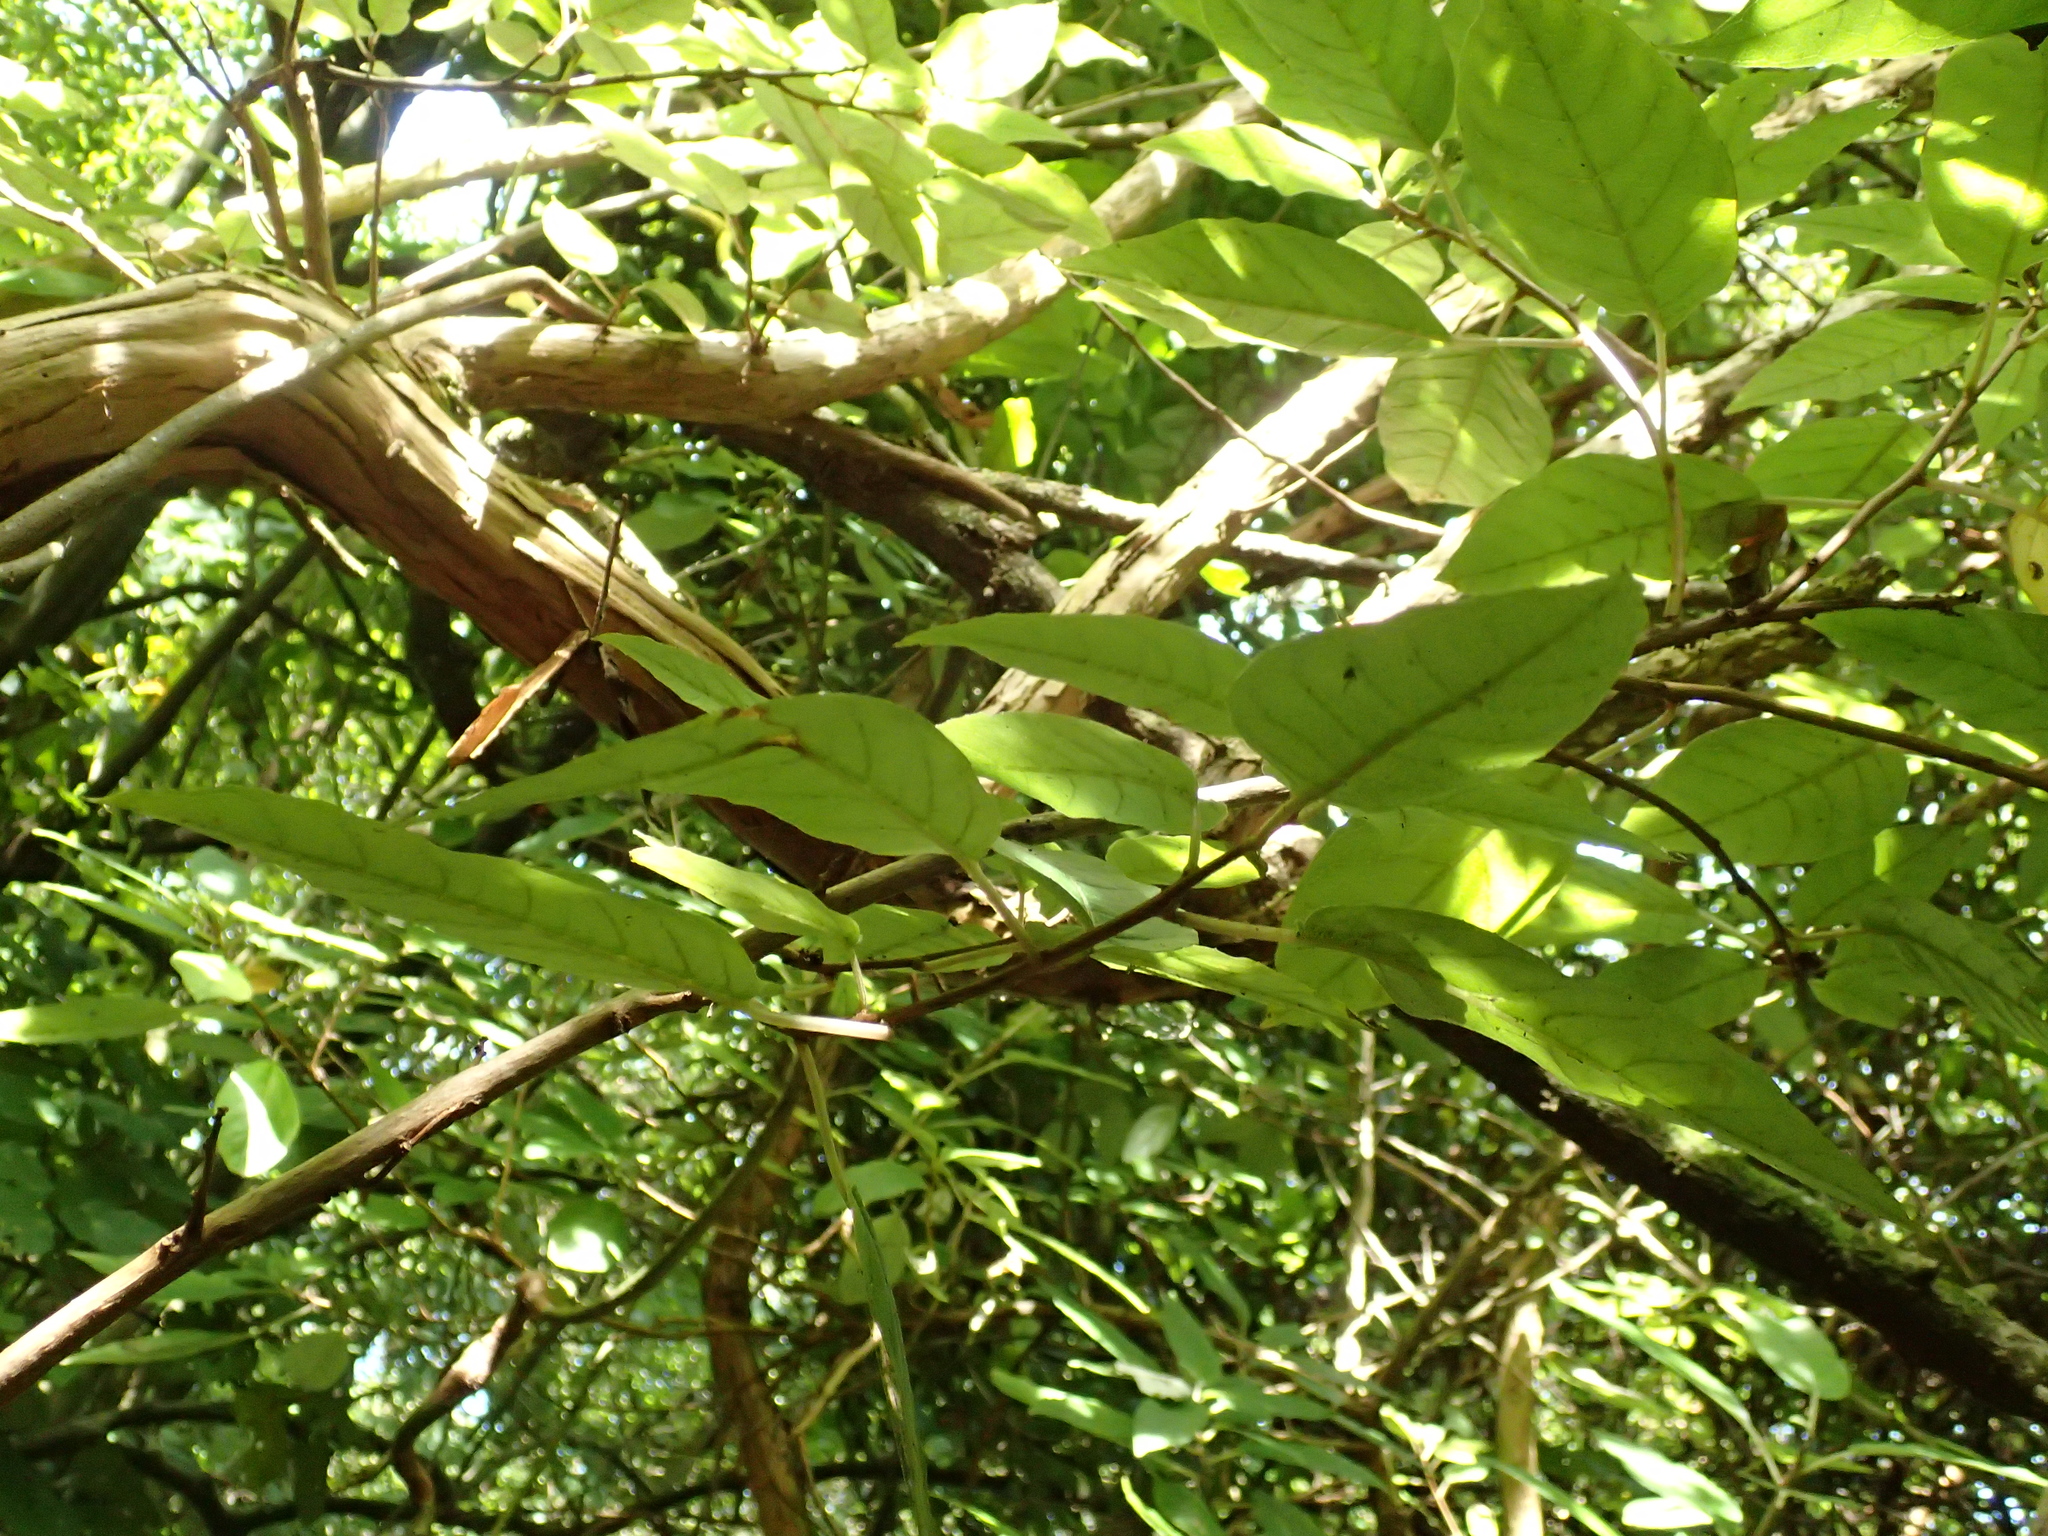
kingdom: Plantae
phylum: Tracheophyta
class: Magnoliopsida
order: Myrtales
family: Onagraceae
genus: Fuchsia
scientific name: Fuchsia excorticata
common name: Tree fuchsia
